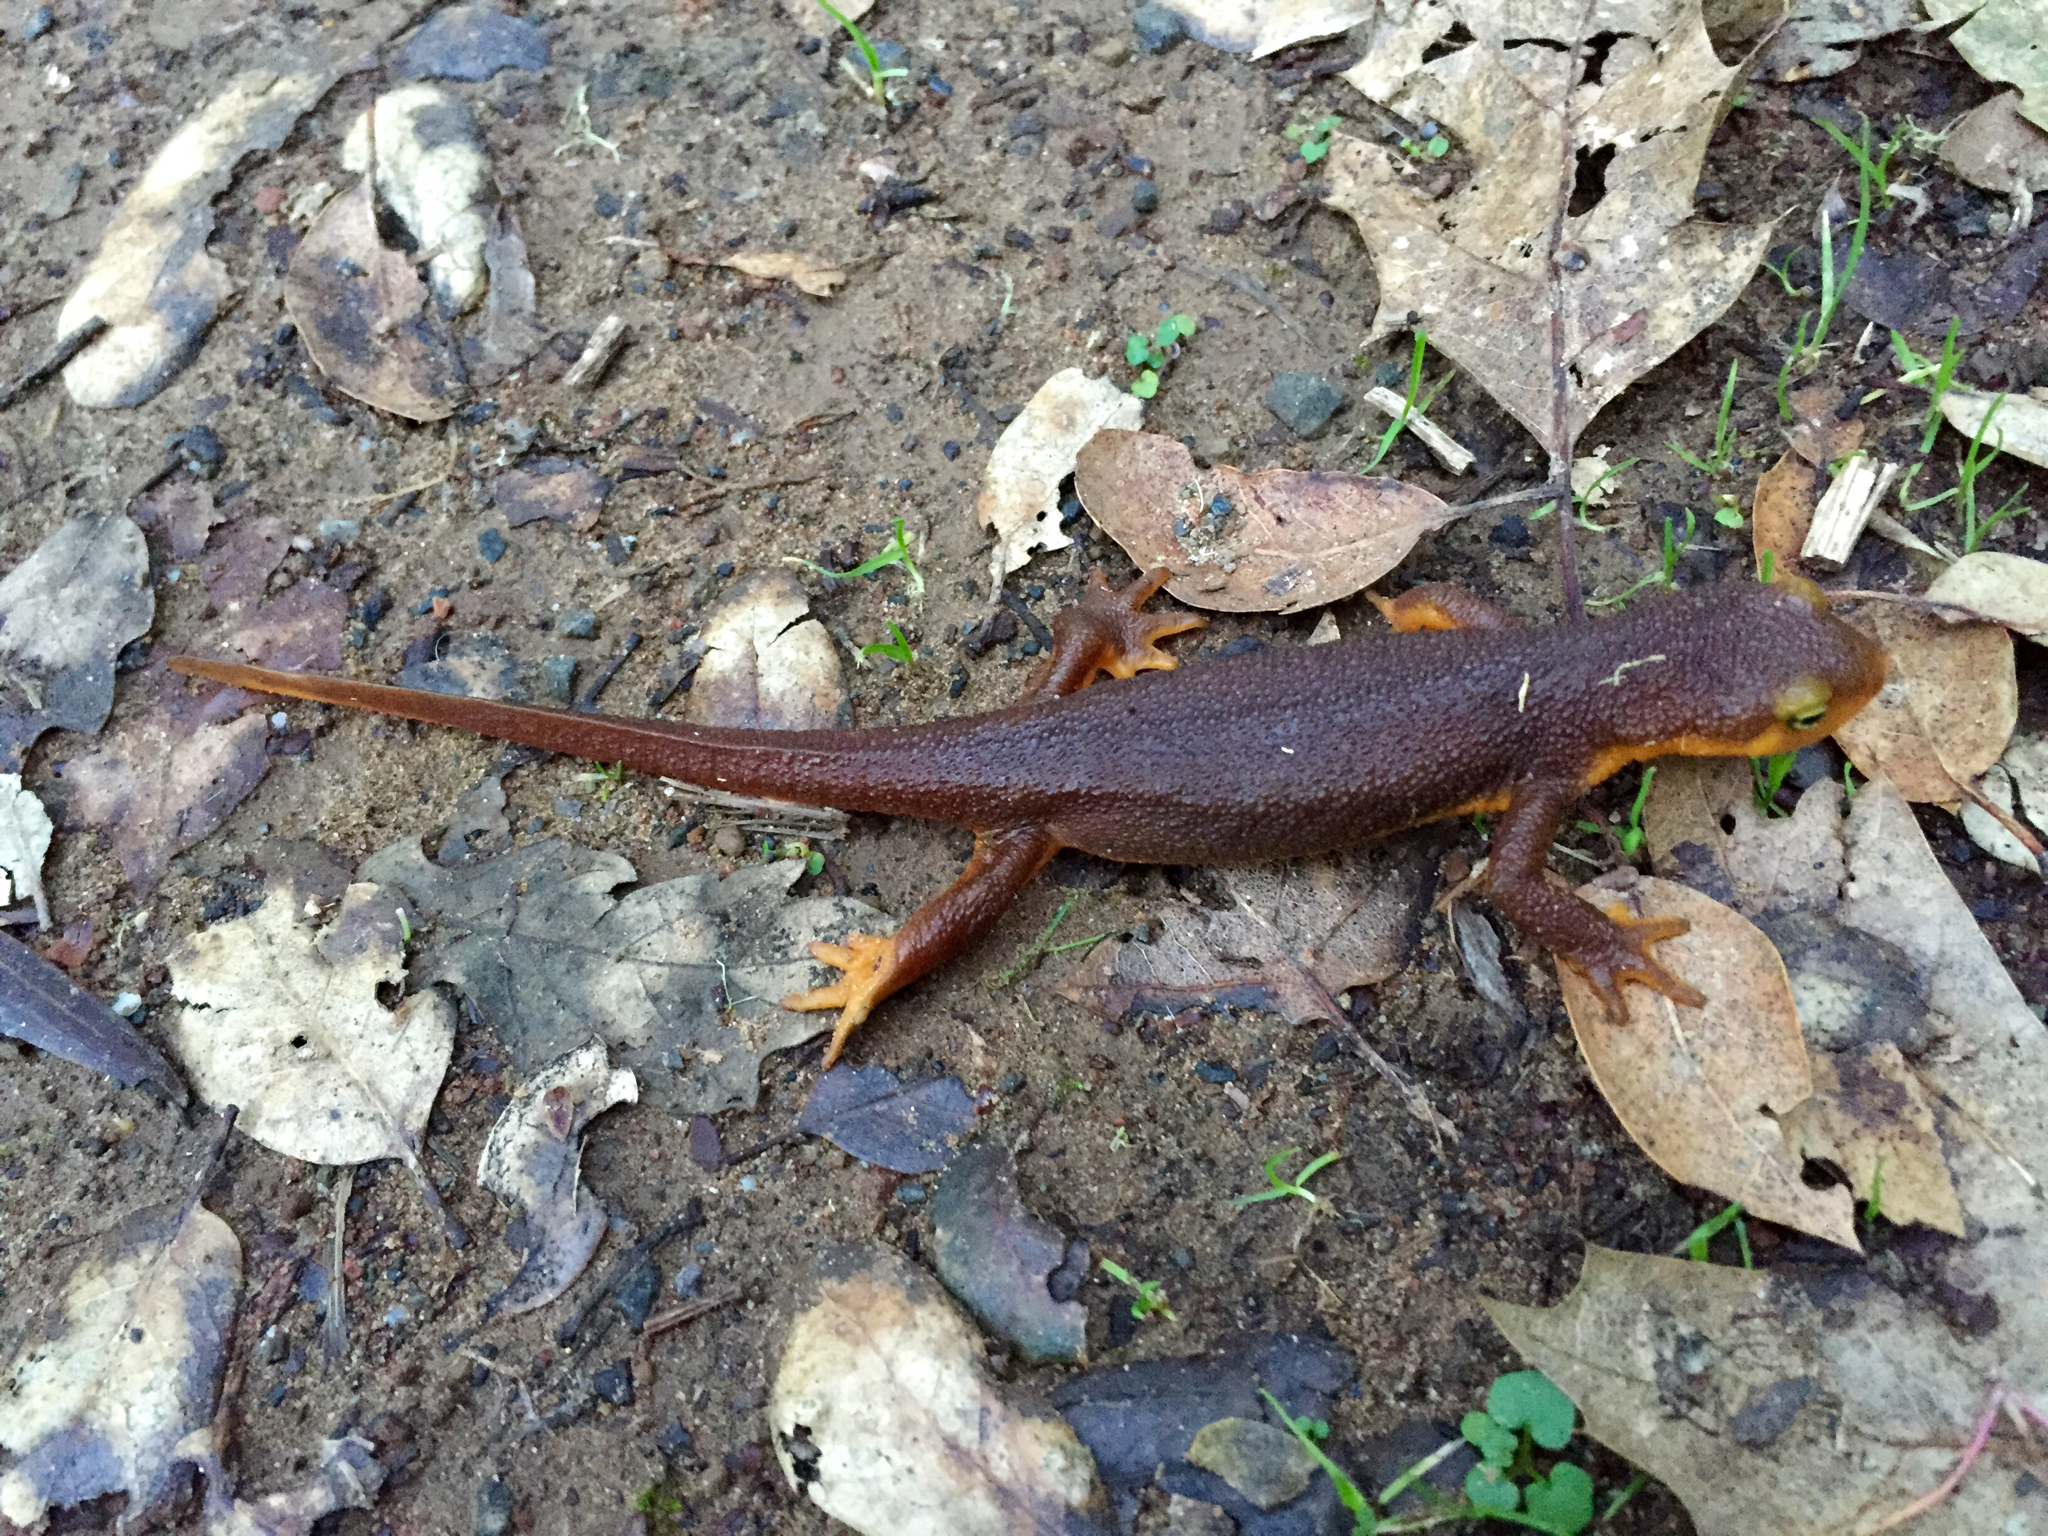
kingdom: Animalia
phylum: Chordata
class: Amphibia
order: Caudata
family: Salamandridae
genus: Taricha
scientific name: Taricha torosa
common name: California newt
